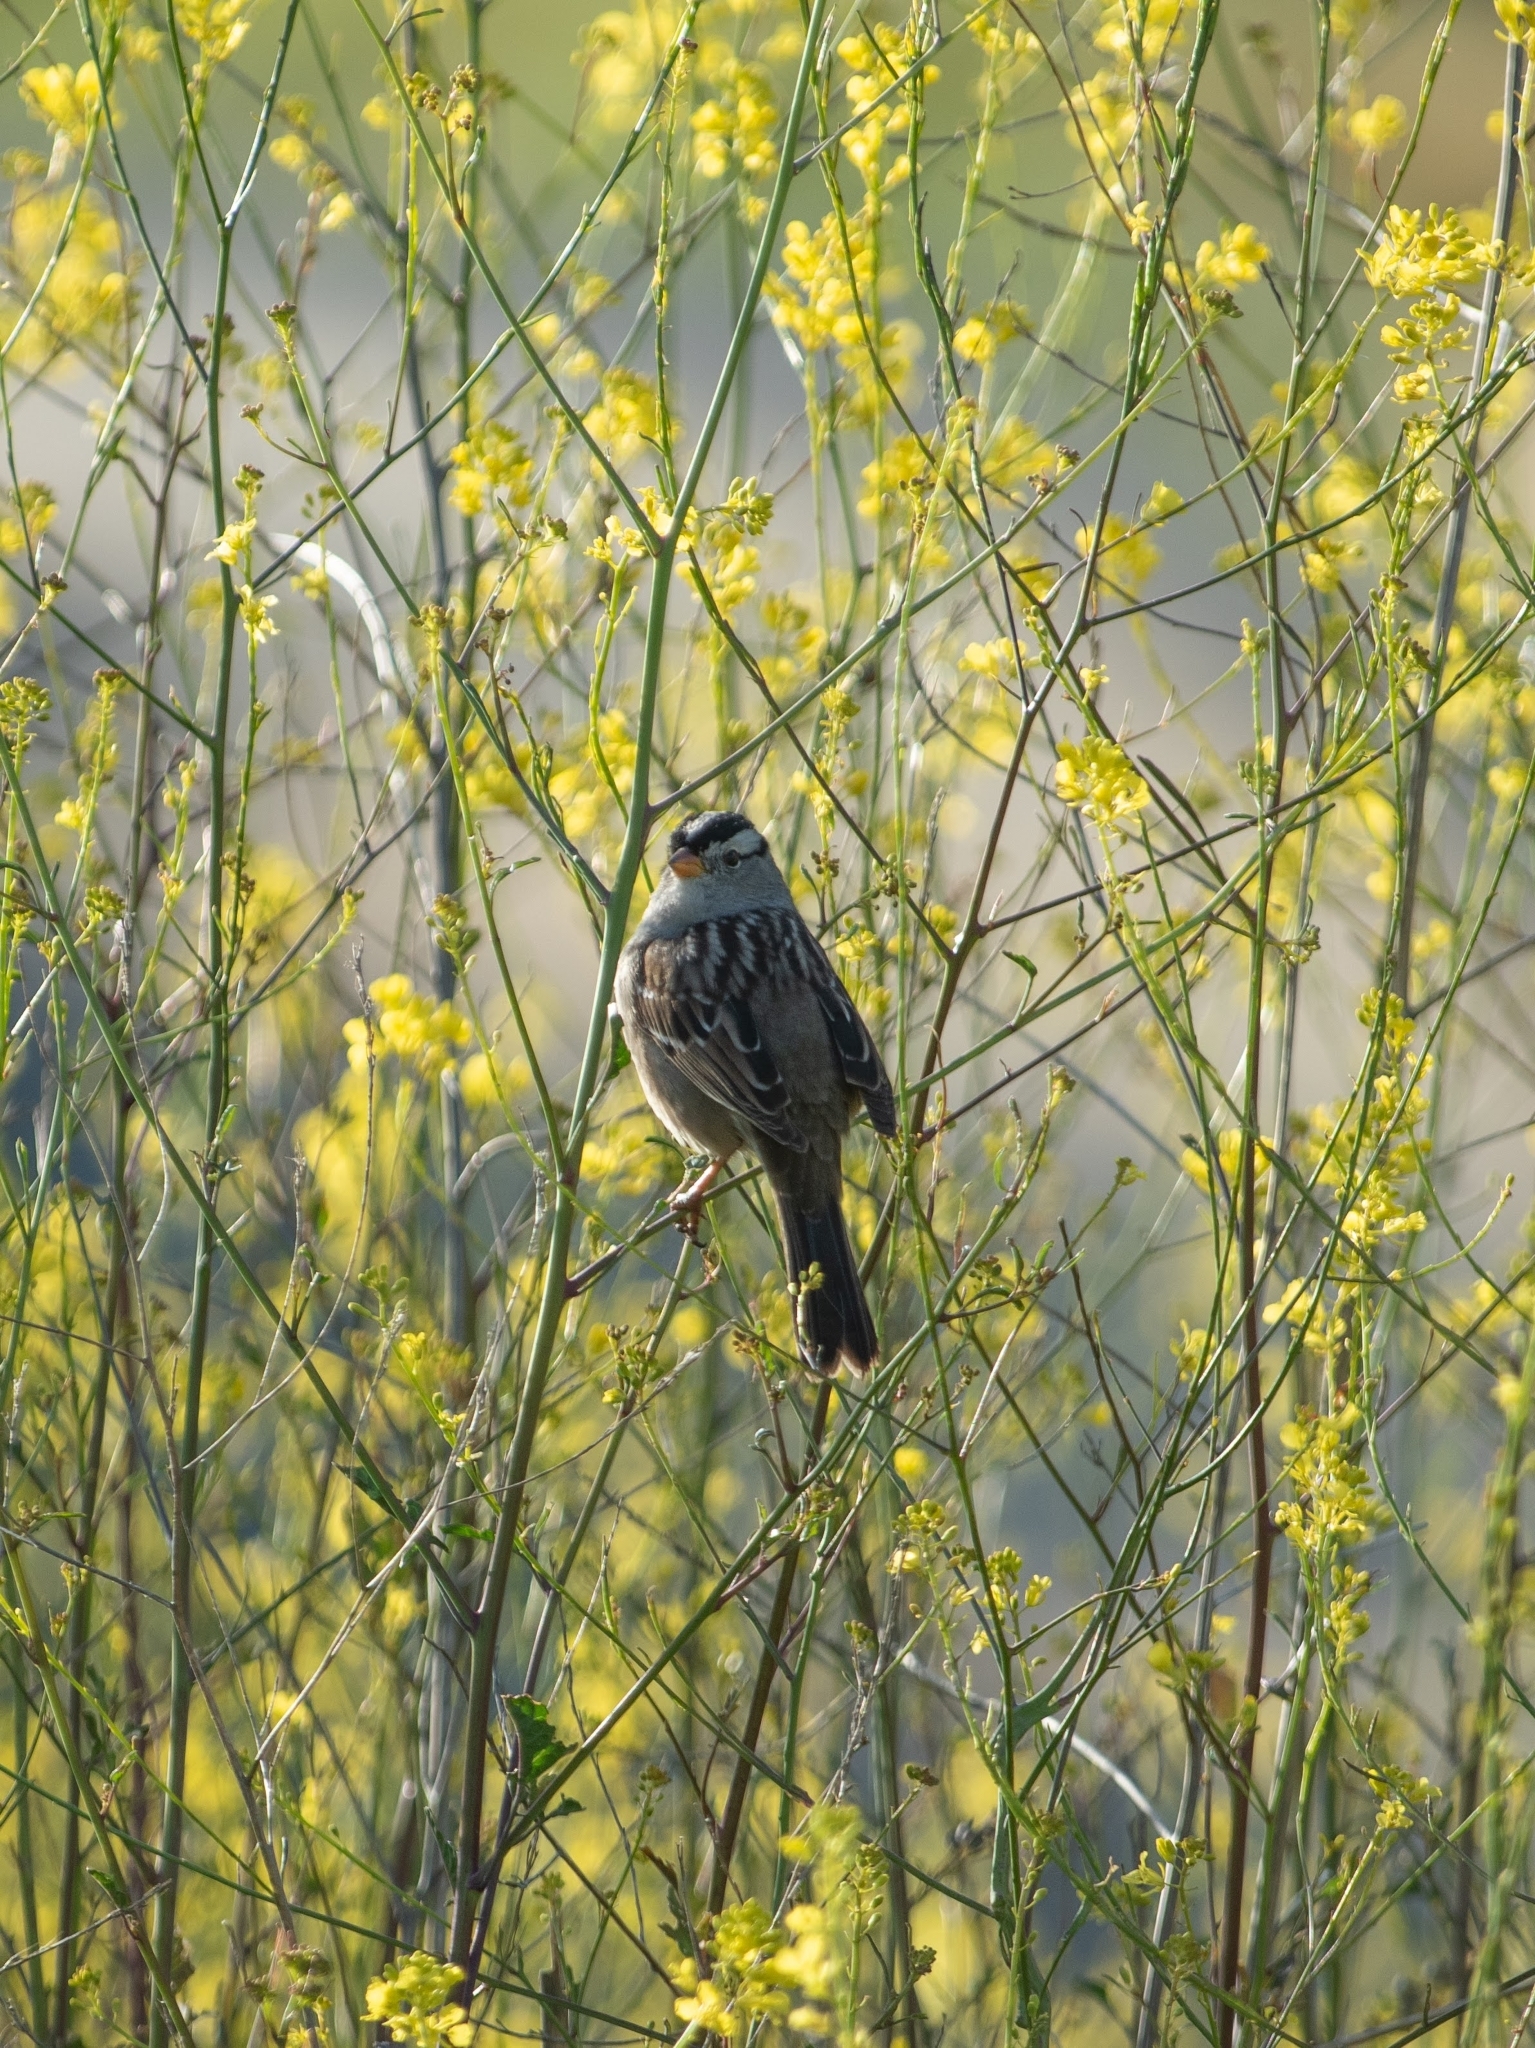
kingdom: Animalia
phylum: Chordata
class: Aves
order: Passeriformes
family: Passerellidae
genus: Zonotrichia
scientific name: Zonotrichia leucophrys
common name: White-crowned sparrow
